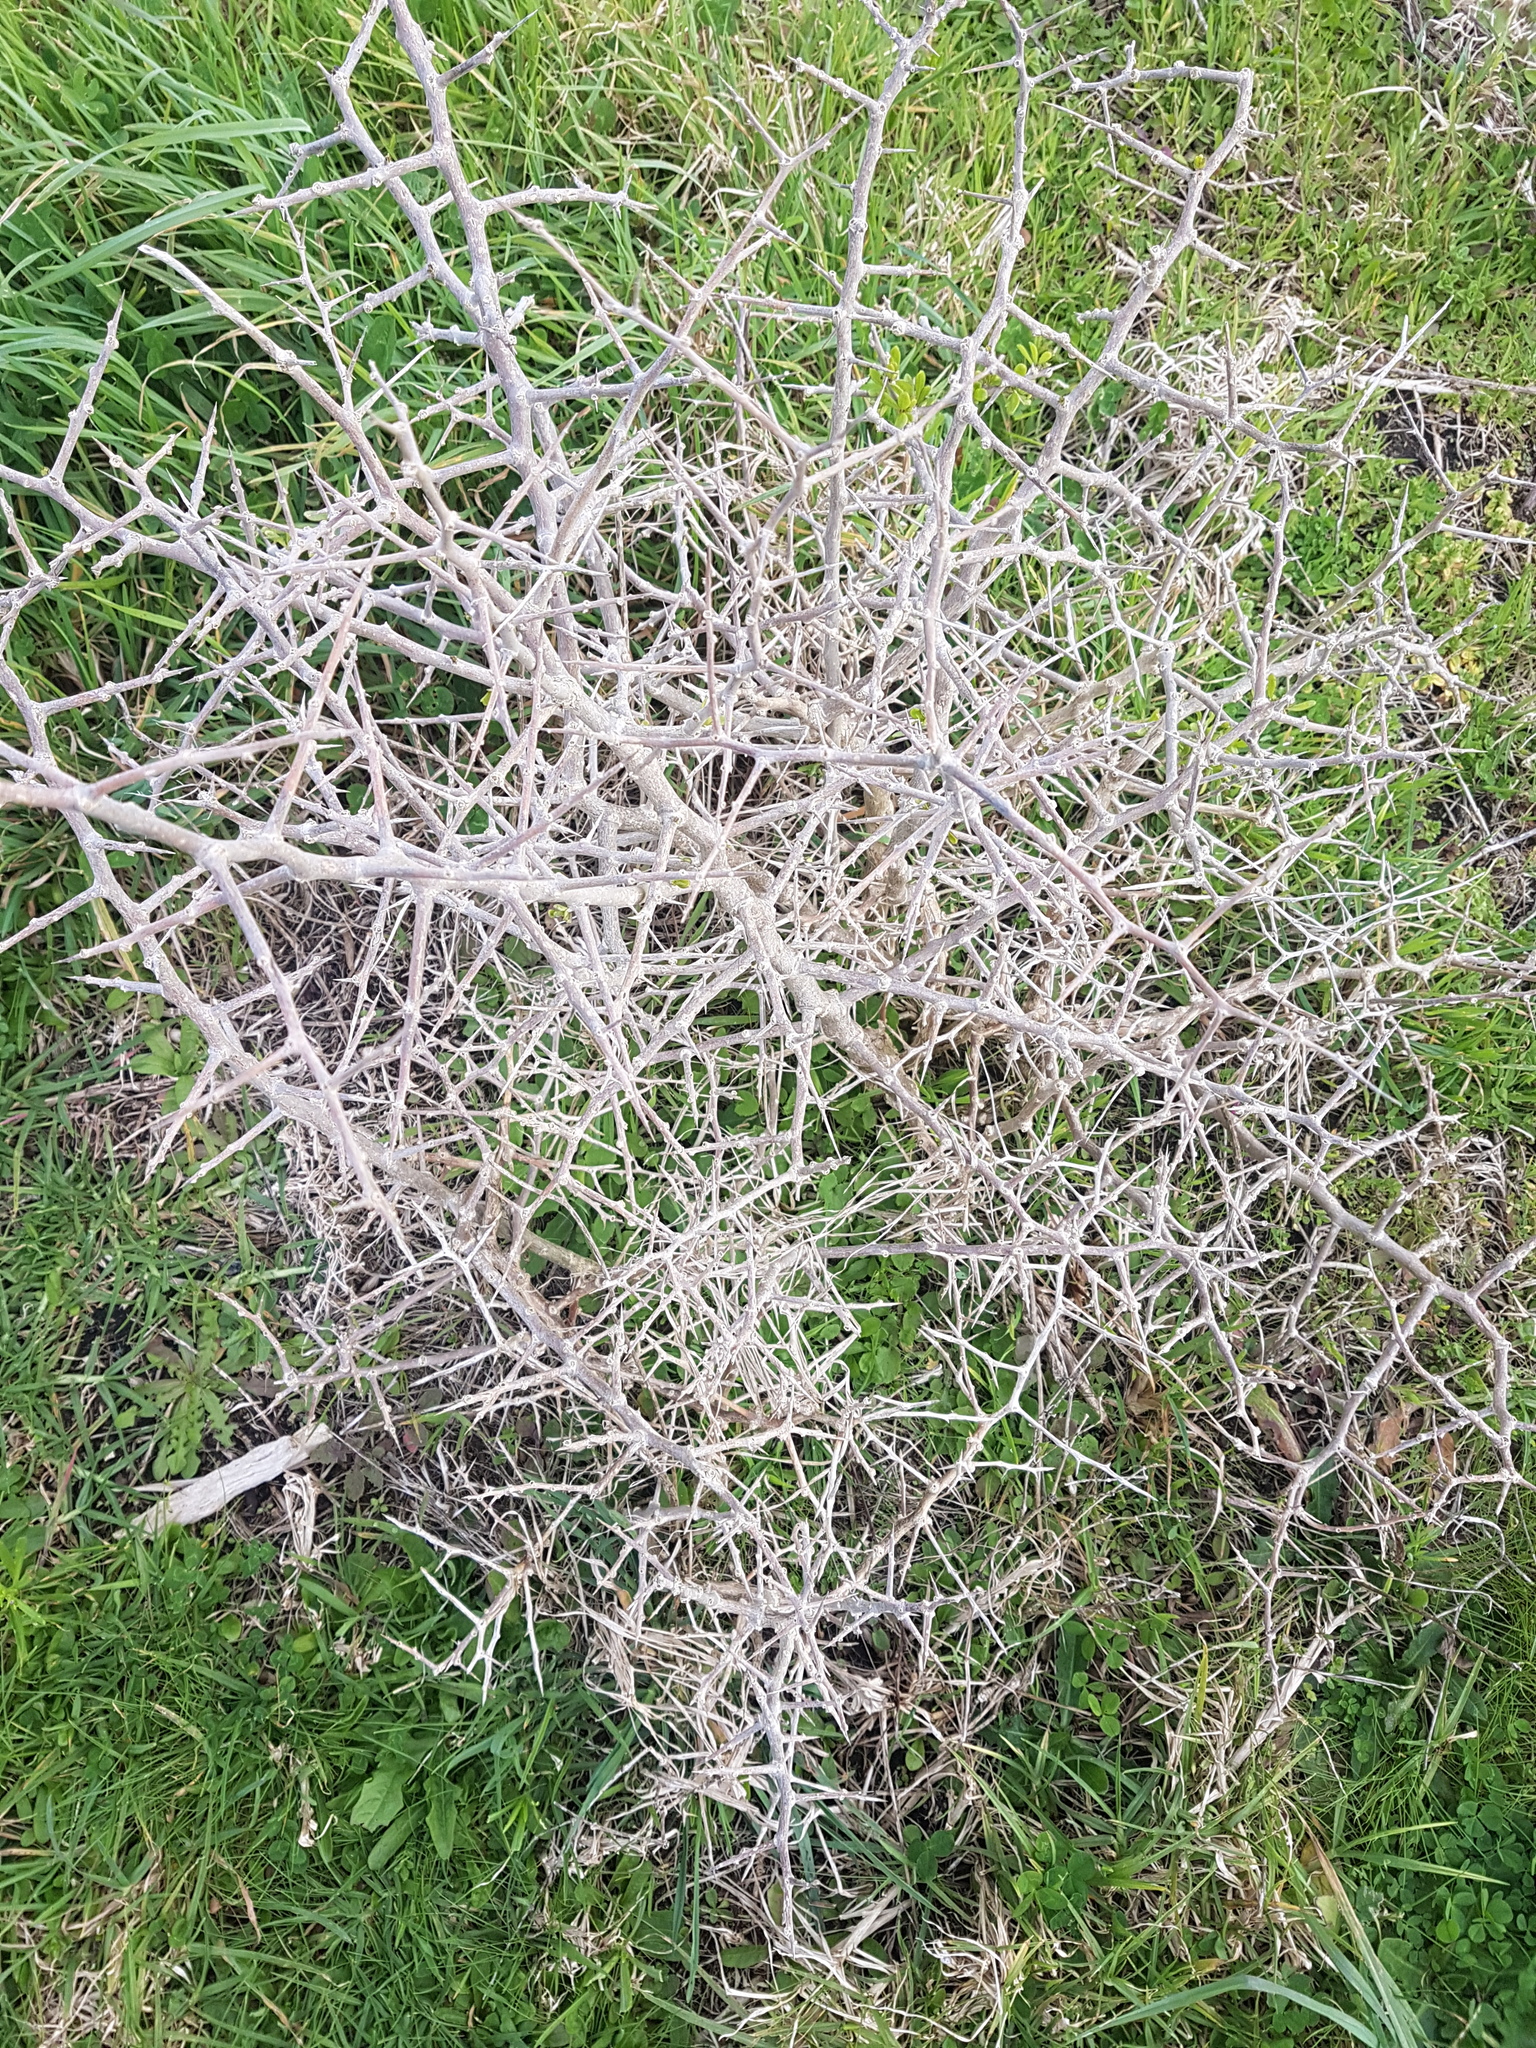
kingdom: Plantae
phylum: Tracheophyta
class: Magnoliopsida
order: Solanales
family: Solanaceae
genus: Lycium
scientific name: Lycium ferocissimum
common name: African boxthorn
